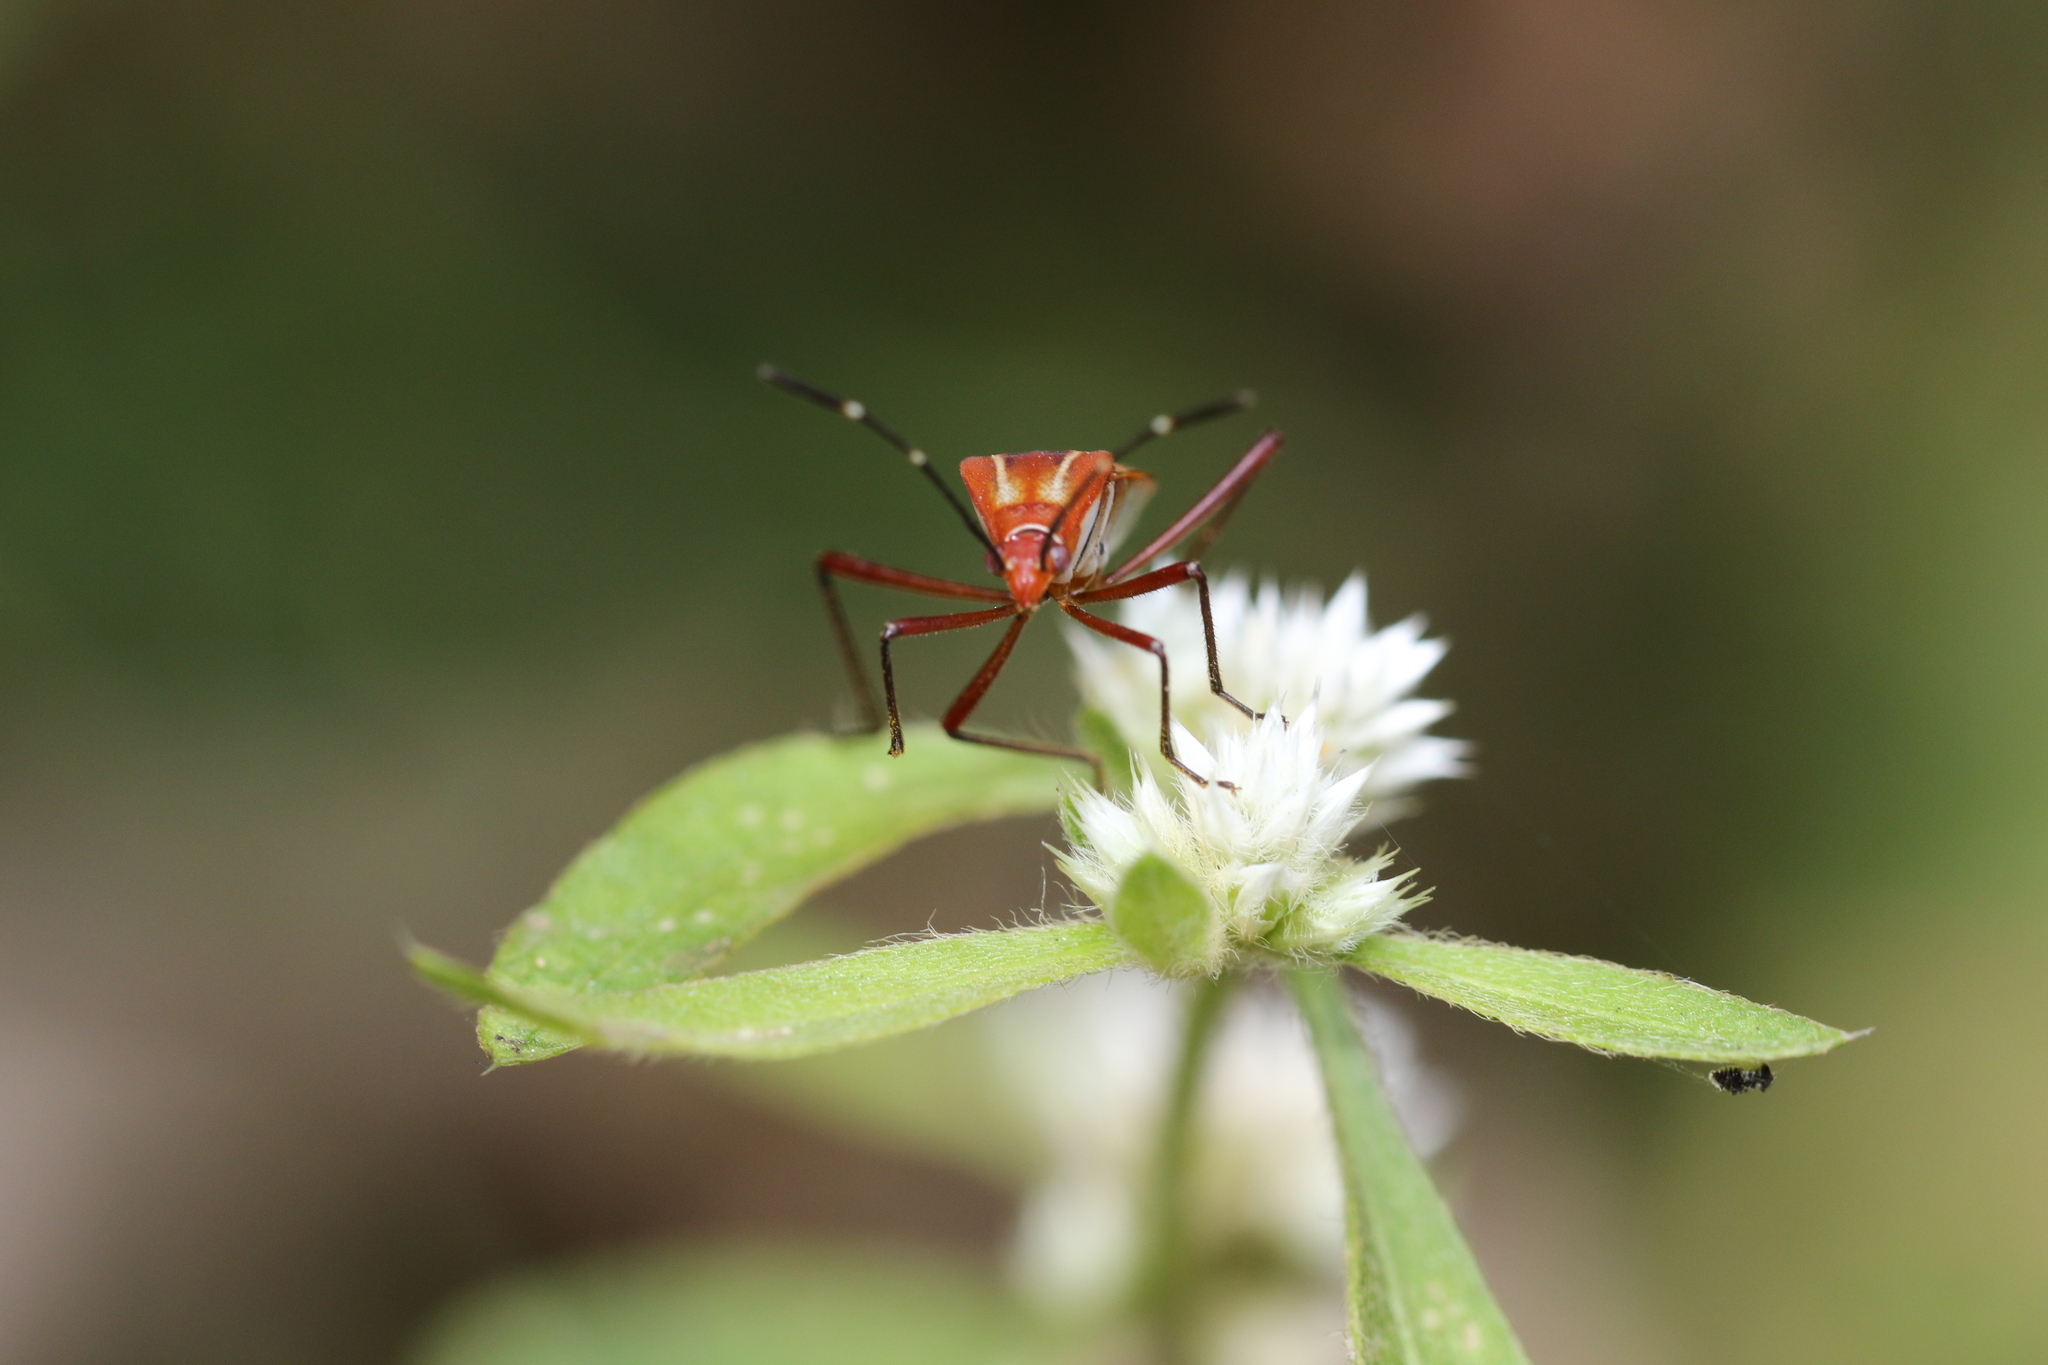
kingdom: Animalia
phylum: Arthropoda
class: Insecta
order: Hemiptera
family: Coreidae
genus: Hypselonotus
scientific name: Hypselonotus interruptus
